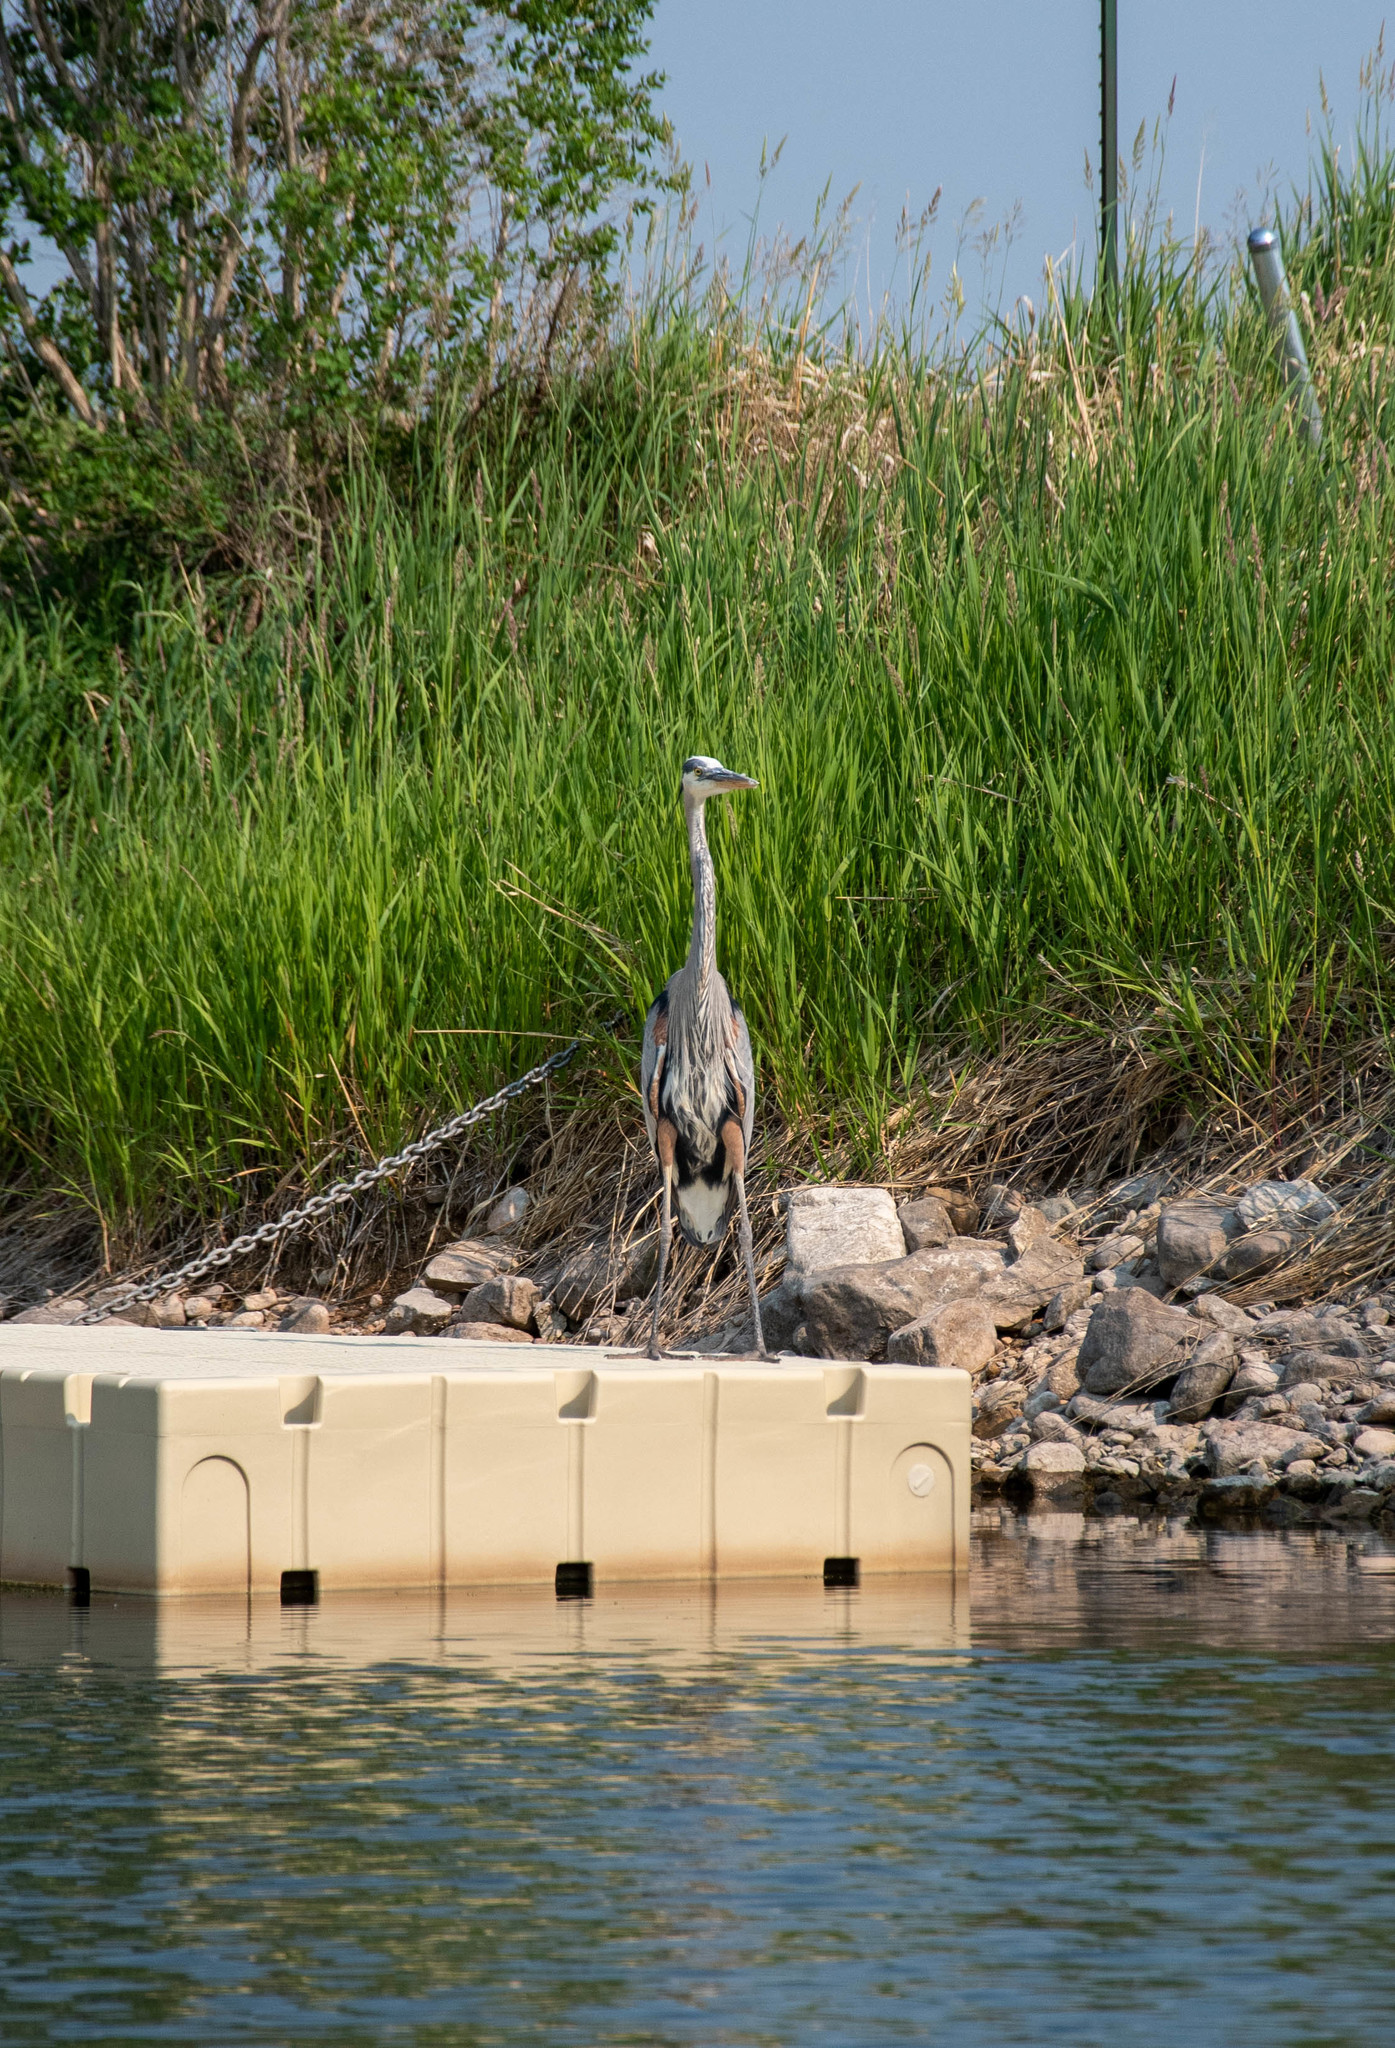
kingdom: Animalia
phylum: Chordata
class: Aves
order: Pelecaniformes
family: Ardeidae
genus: Ardea
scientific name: Ardea herodias
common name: Great blue heron
